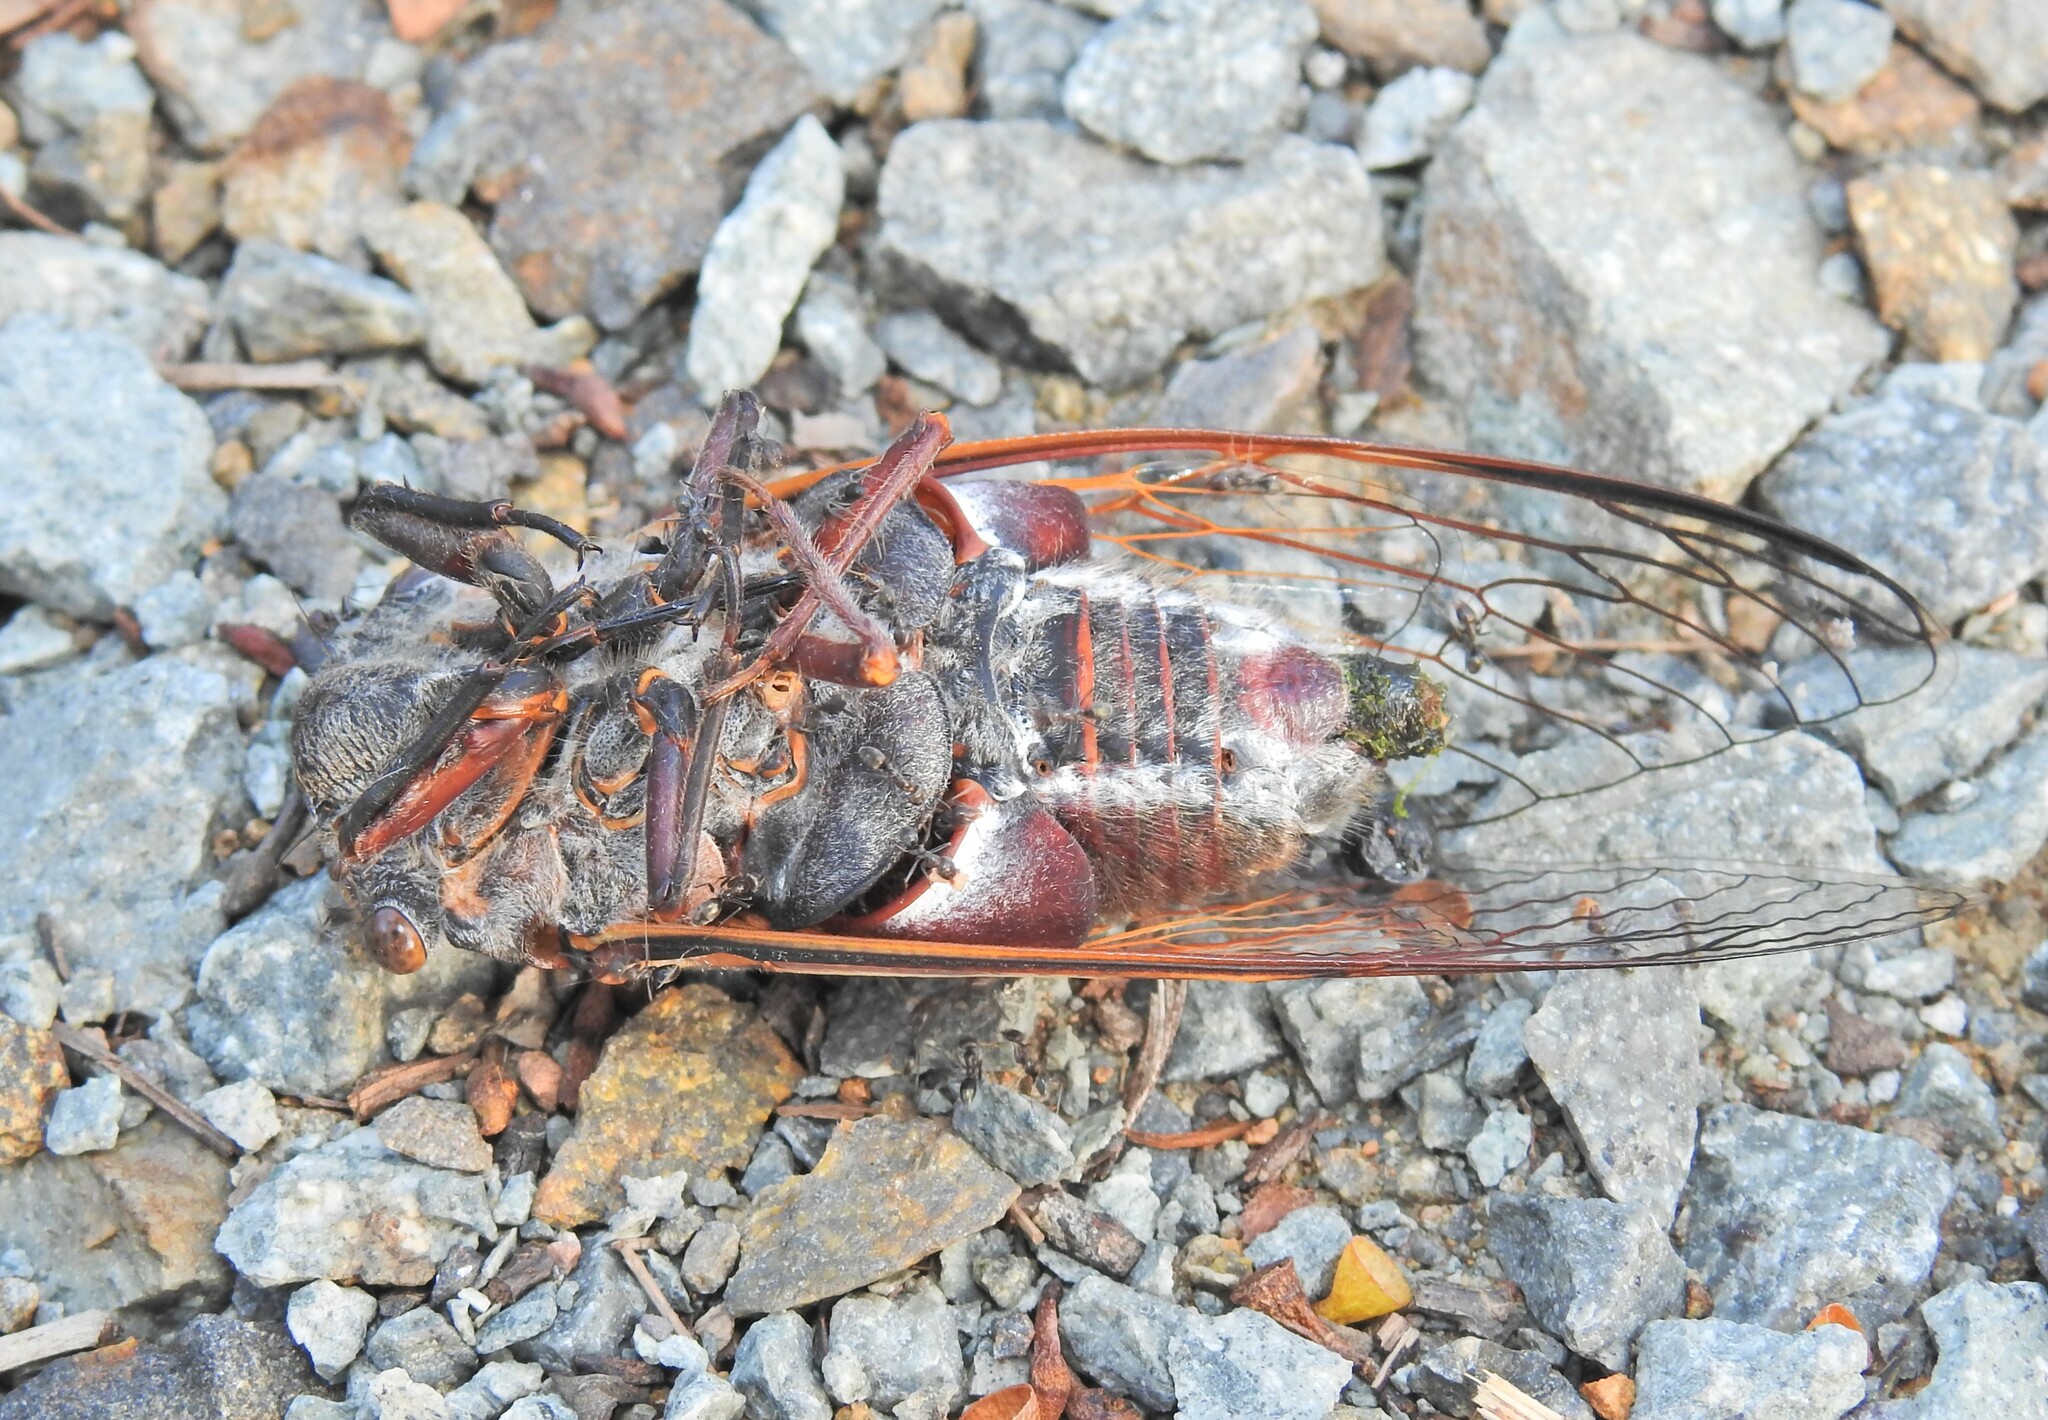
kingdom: Animalia
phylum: Arthropoda
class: Insecta
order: Hemiptera
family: Cicadidae
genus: Thopha
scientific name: Thopha saccata
